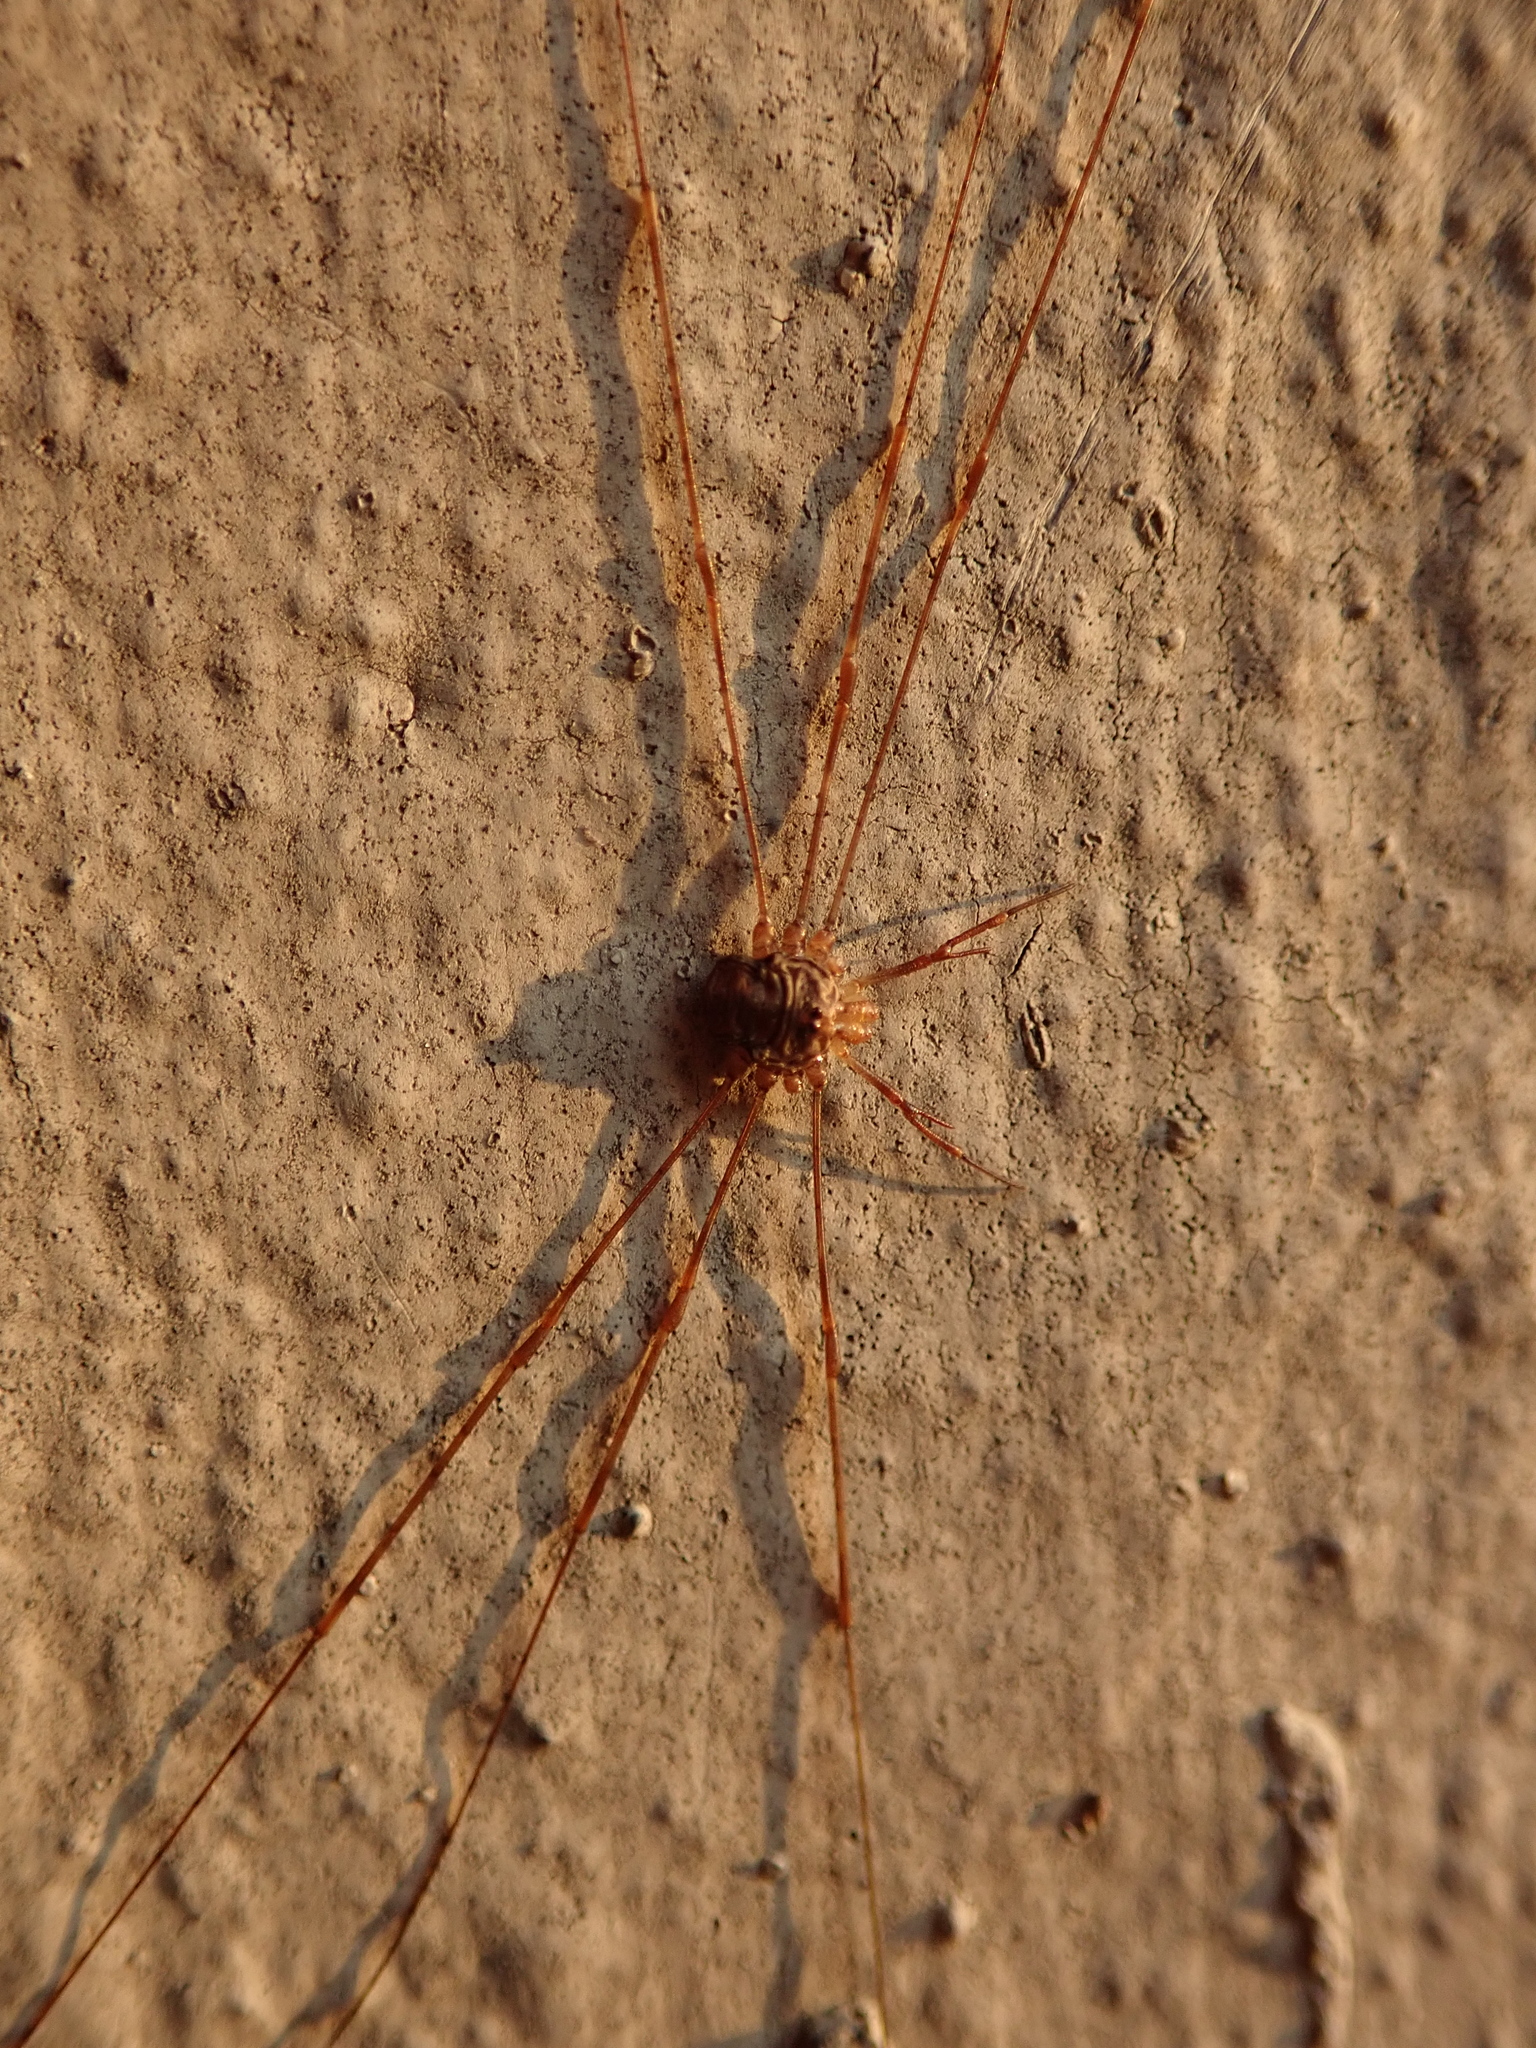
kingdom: Animalia
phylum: Arthropoda
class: Arachnida
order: Opiliones
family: Phalangiidae
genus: Dicranopalpus
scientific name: Dicranopalpus ramosus
